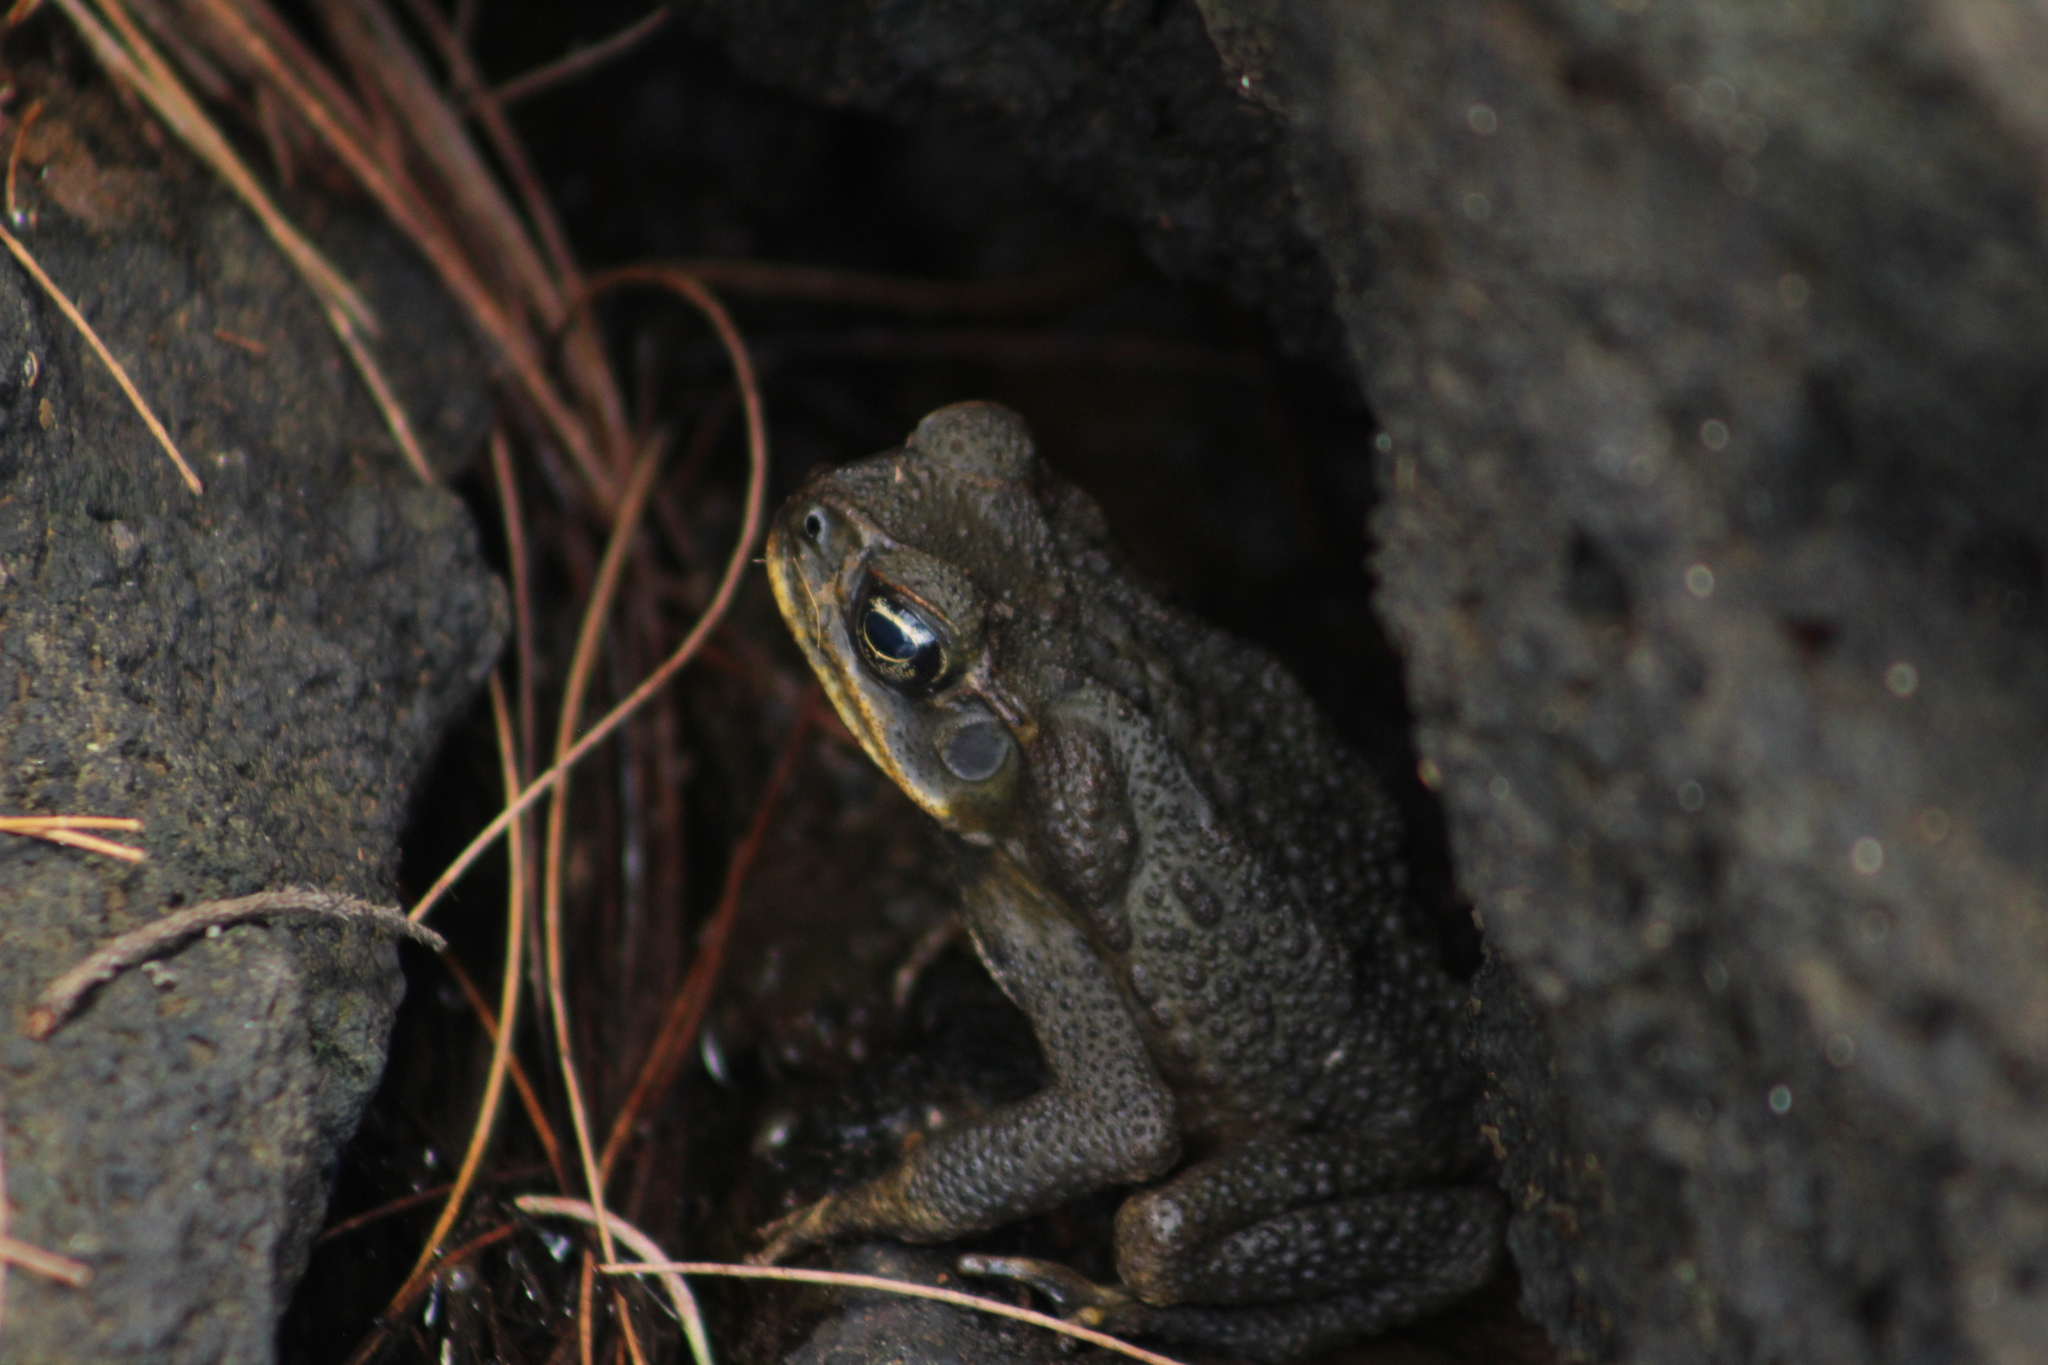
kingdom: Animalia
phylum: Chordata
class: Amphibia
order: Anura
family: Bufonidae
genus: Rhinella
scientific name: Rhinella marina
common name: Cane toad
